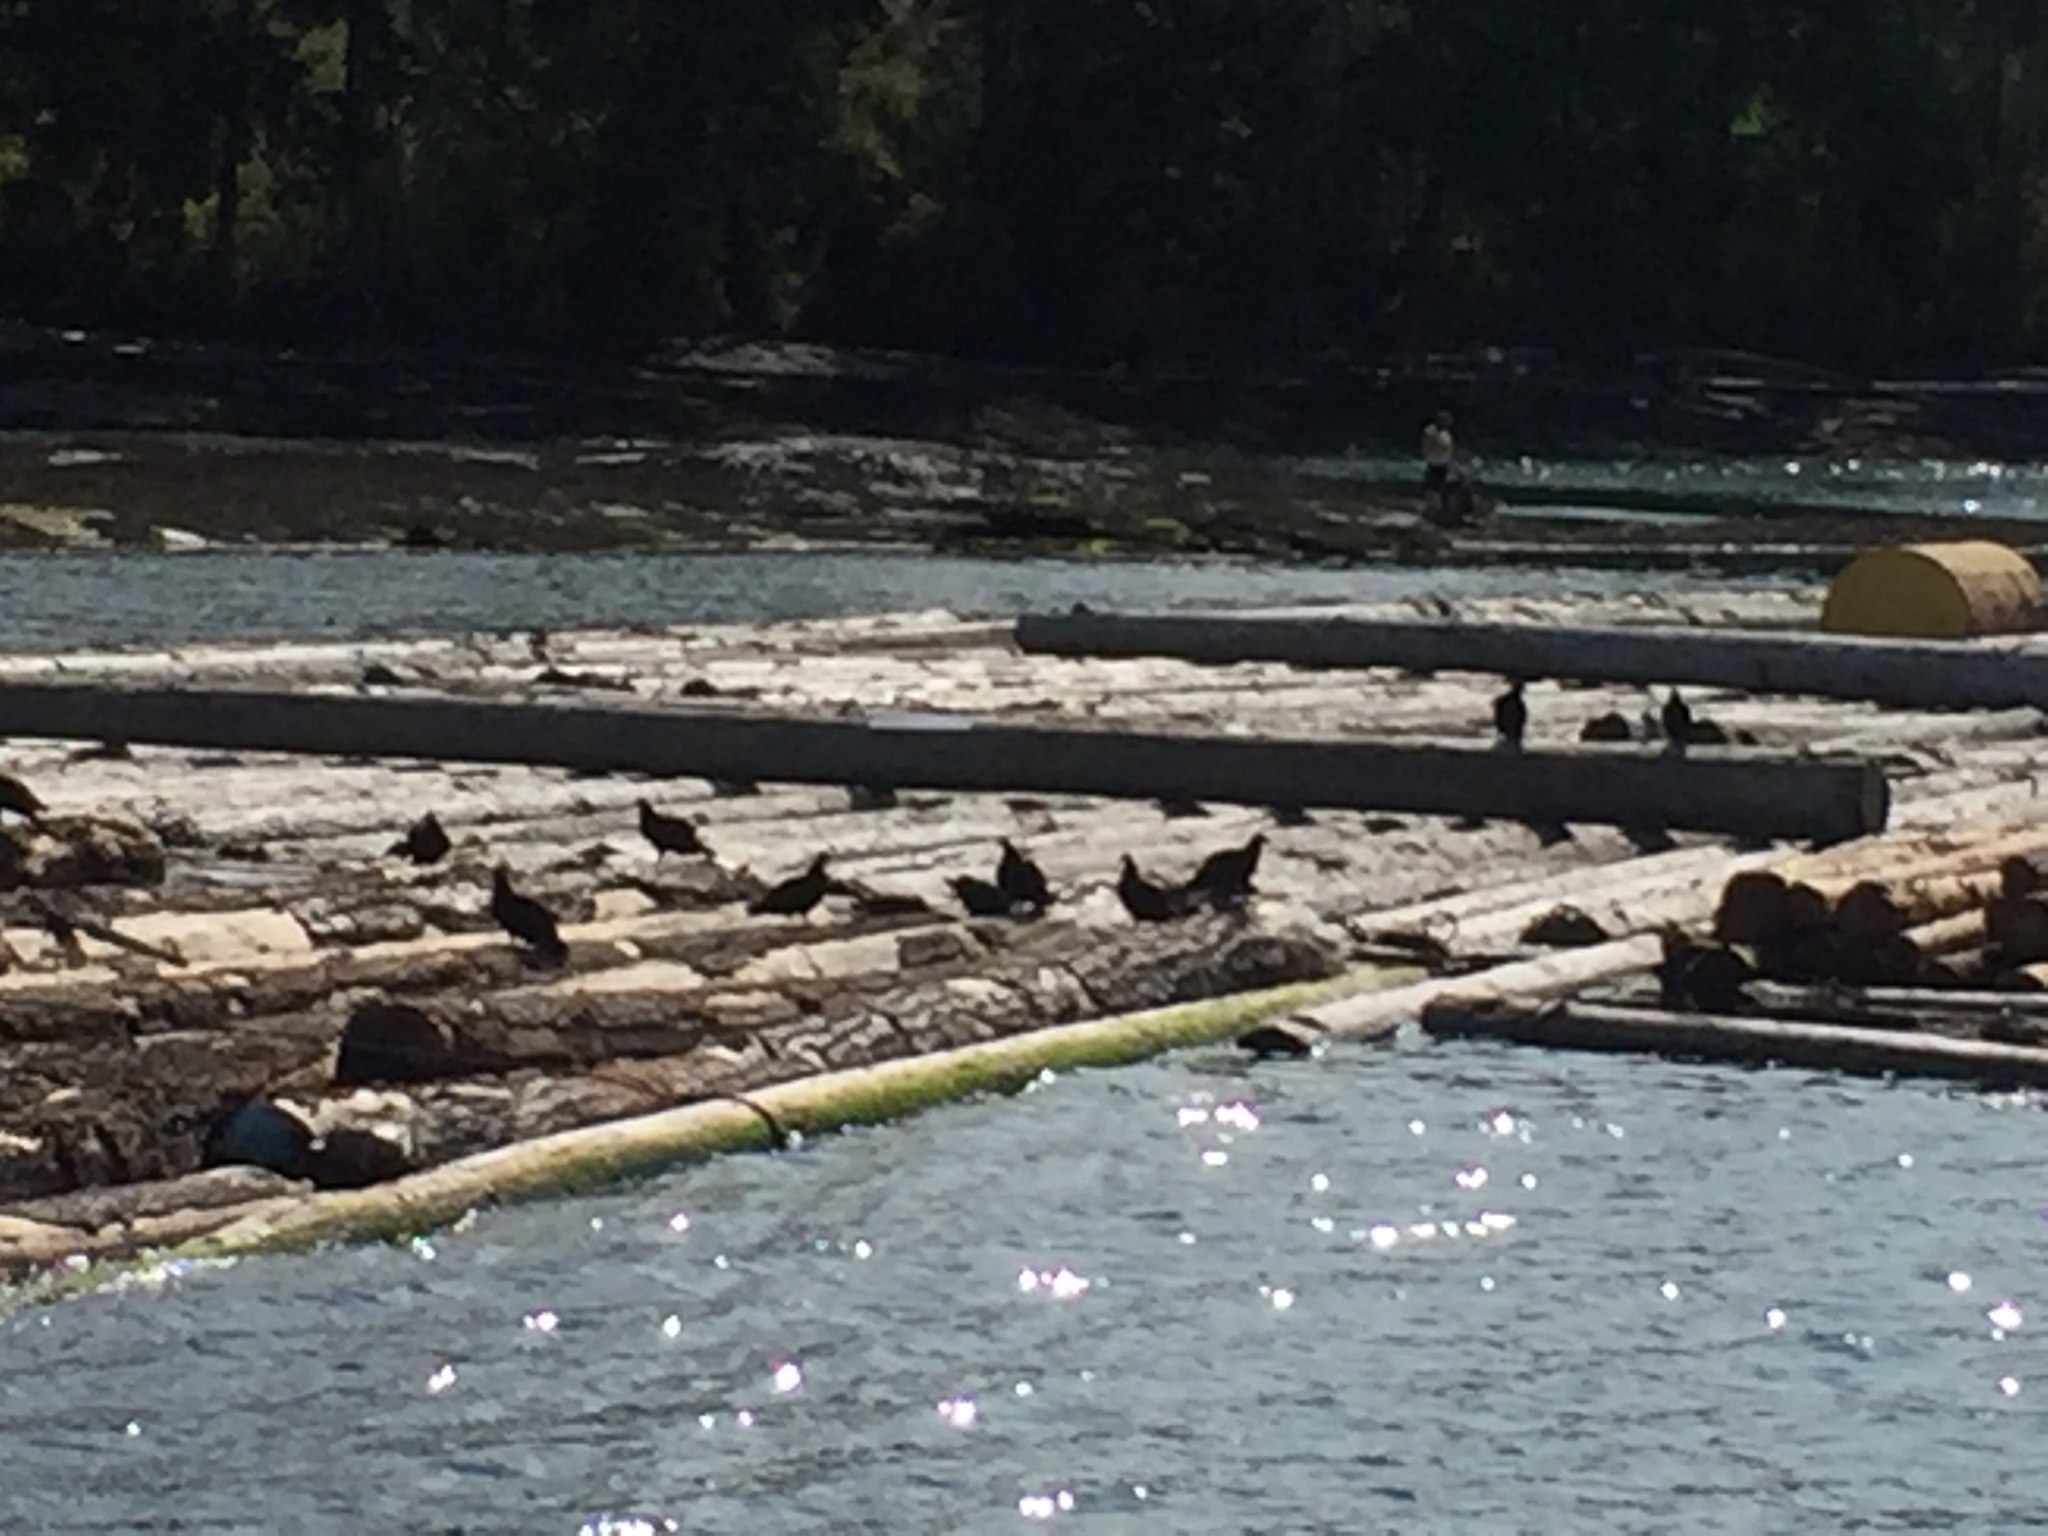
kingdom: Animalia
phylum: Chordata
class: Aves
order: Accipitriformes
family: Cathartidae
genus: Cathartes
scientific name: Cathartes aura
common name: Turkey vulture
